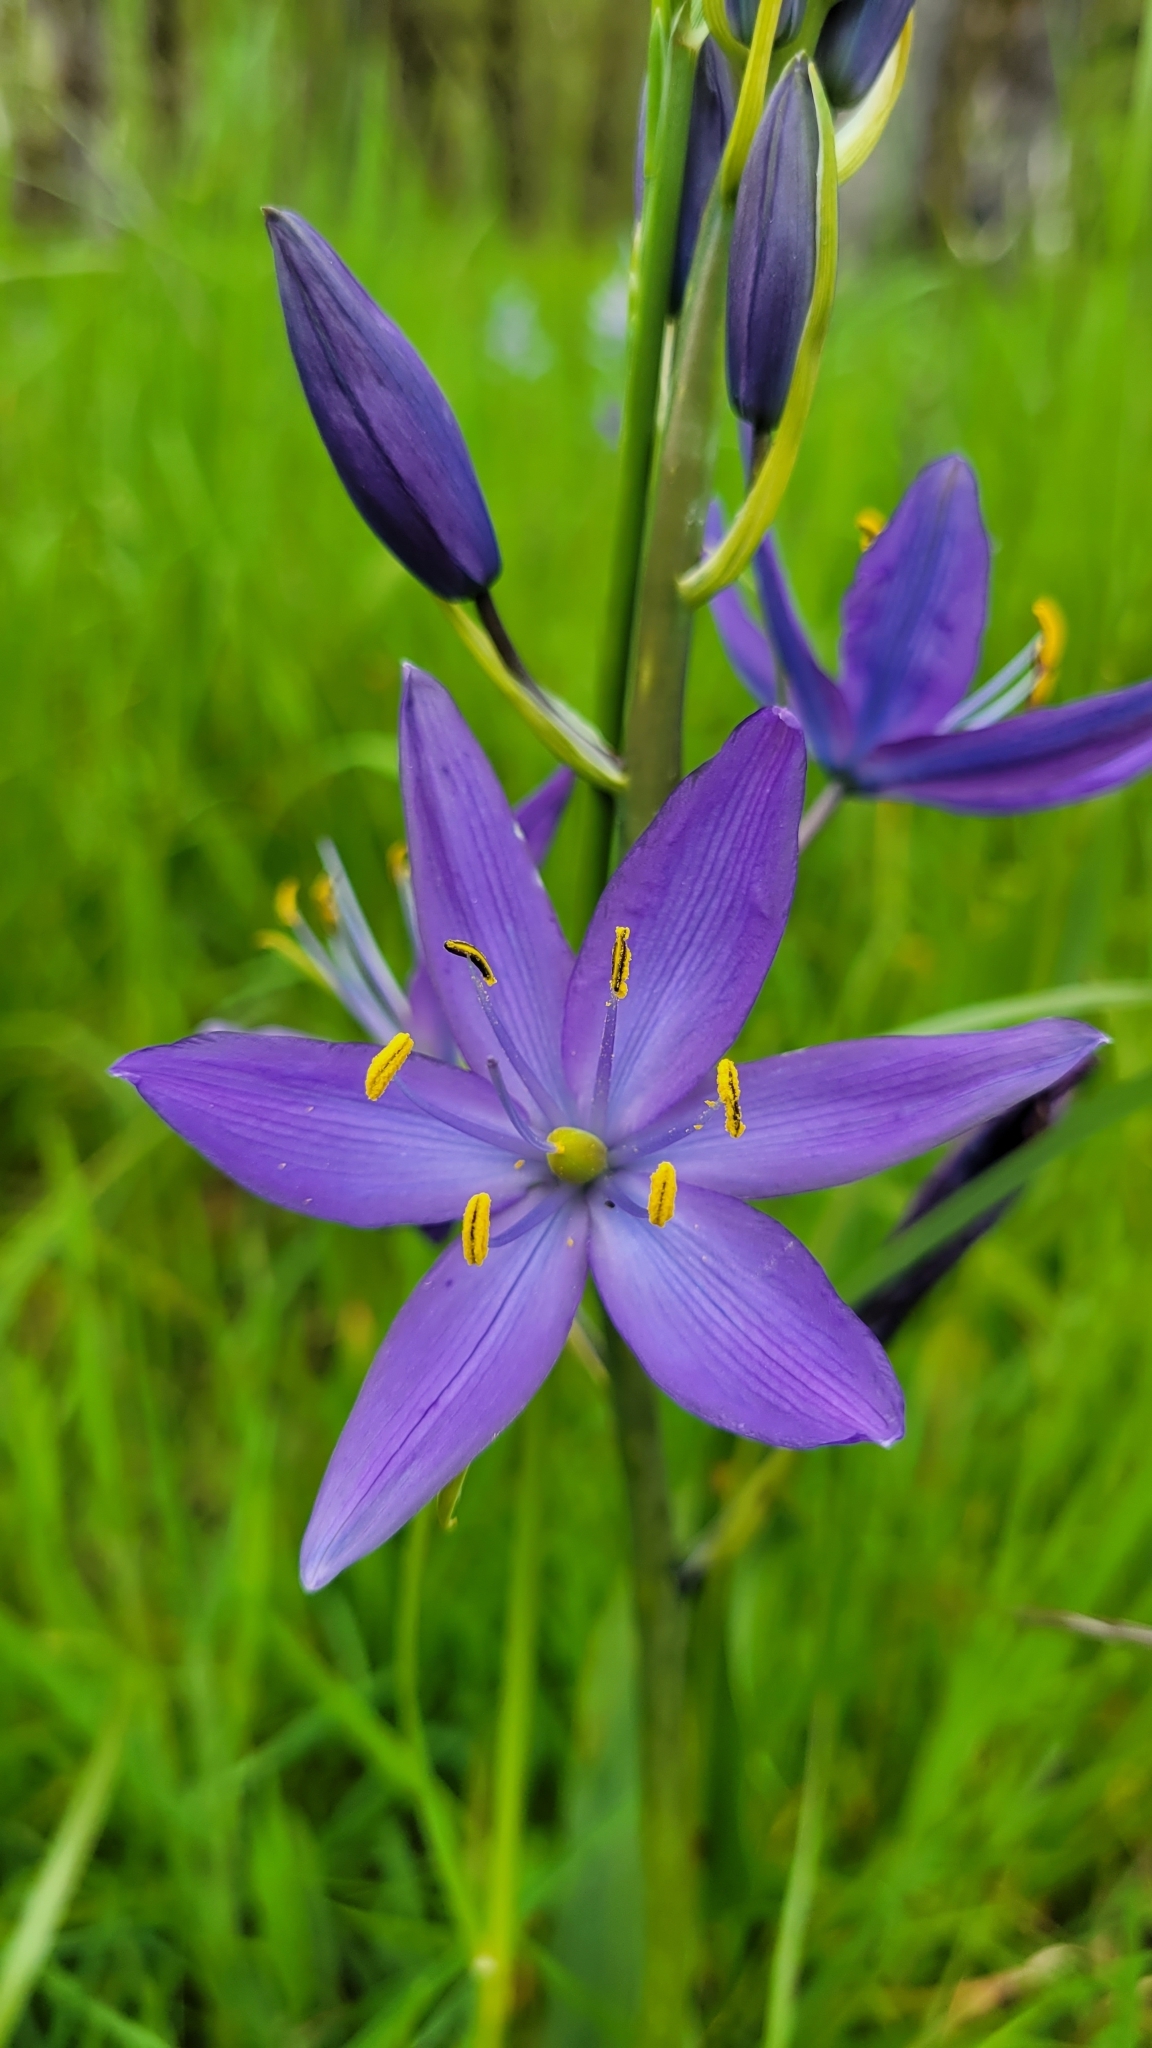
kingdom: Plantae
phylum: Tracheophyta
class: Liliopsida
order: Asparagales
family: Asparagaceae
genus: Camassia
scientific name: Camassia leichtlinii
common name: Leichtlin's camas
